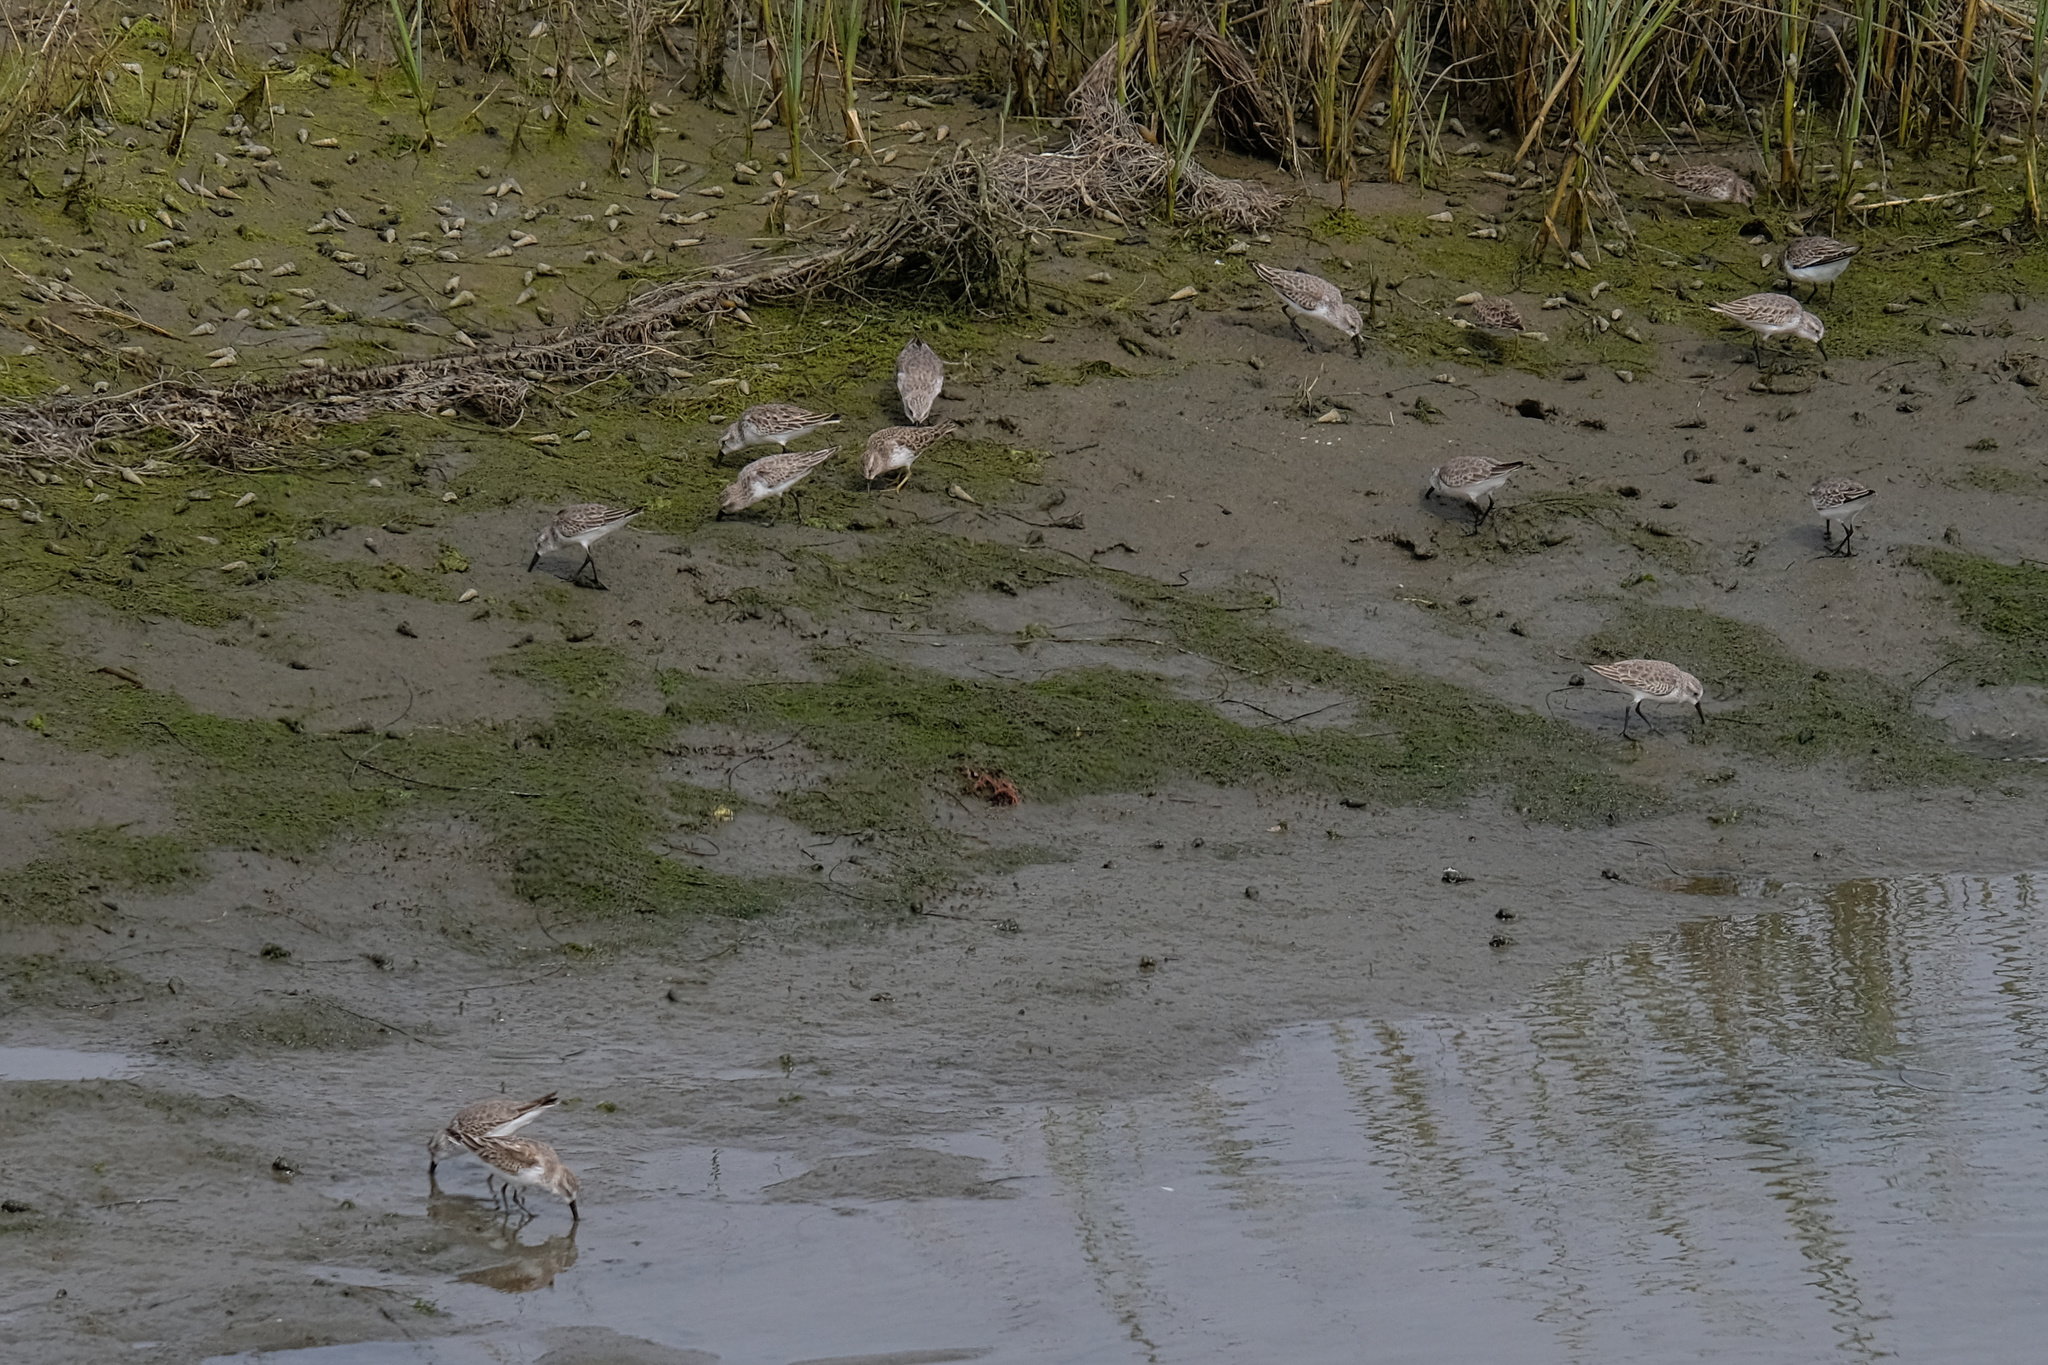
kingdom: Animalia
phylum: Chordata
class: Aves
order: Charadriiformes
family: Scolopacidae
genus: Calidris
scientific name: Calidris mauri
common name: Western sandpiper
